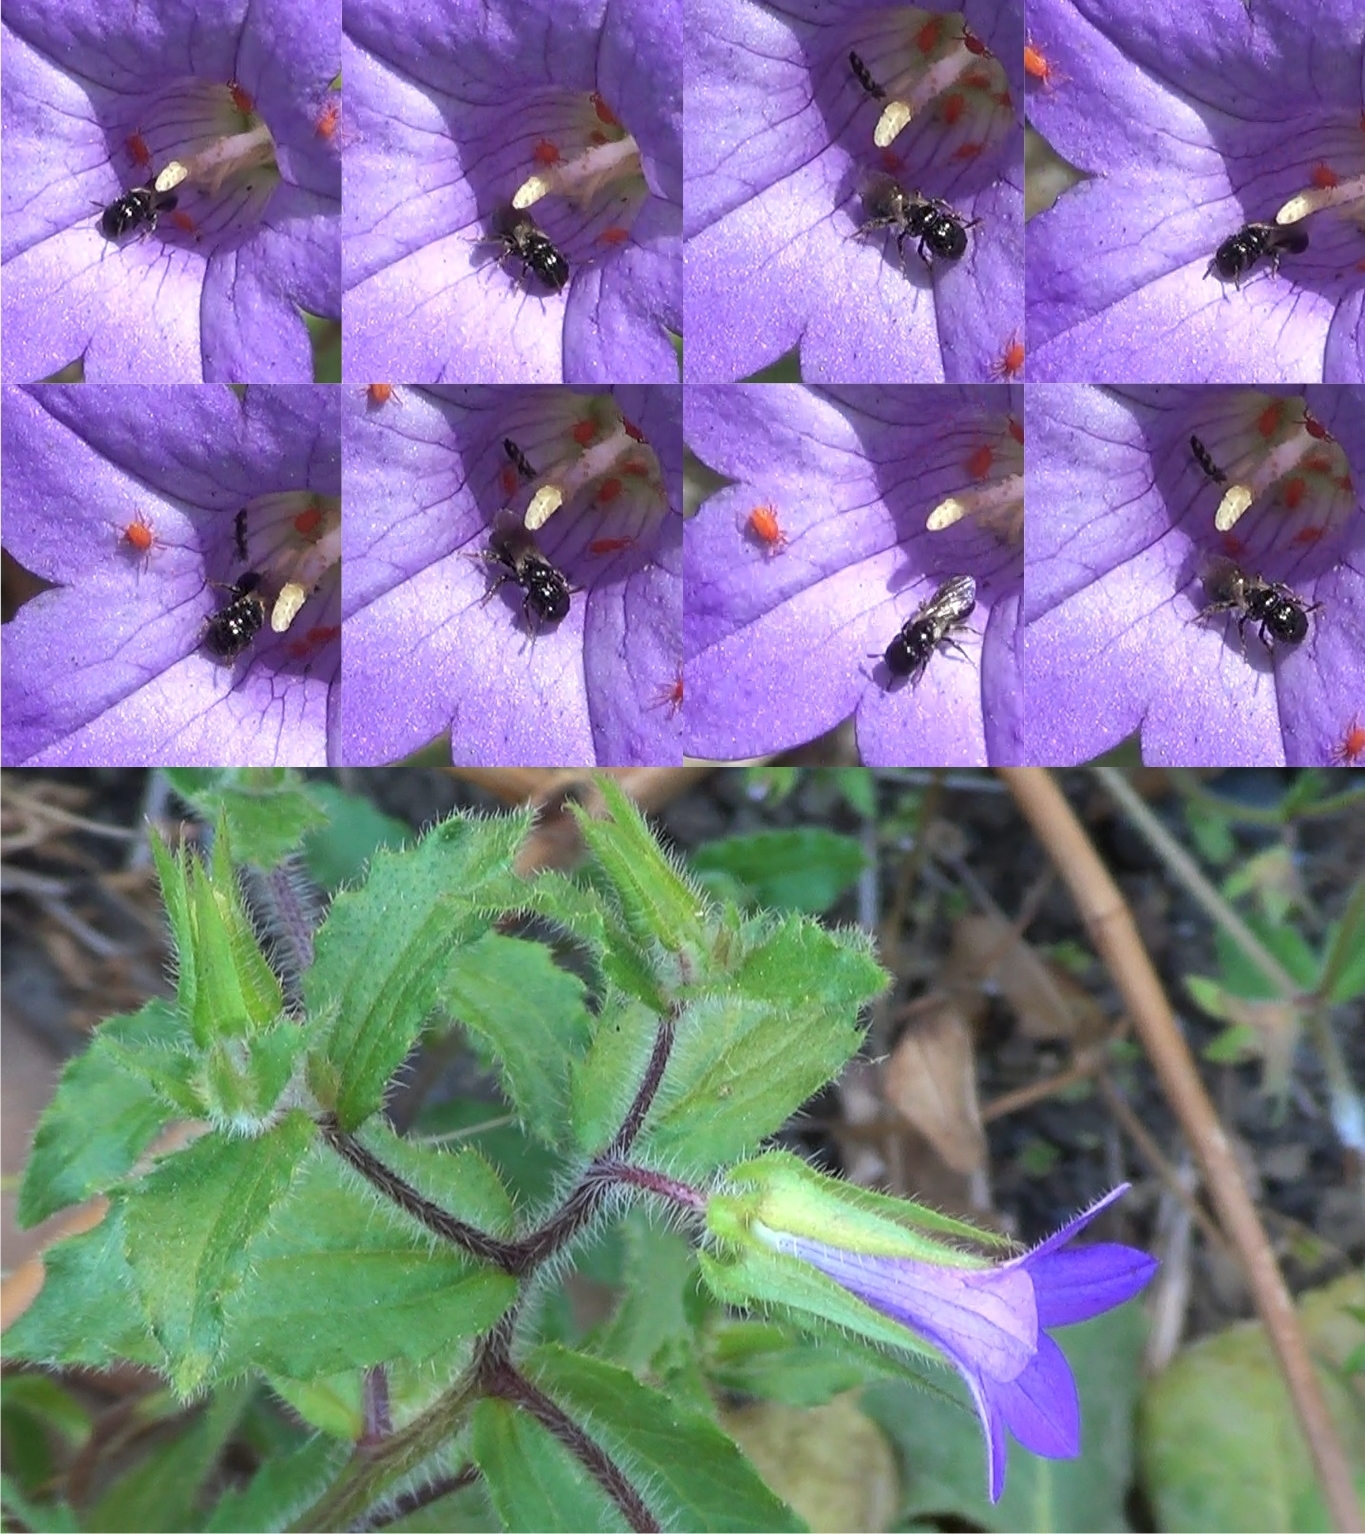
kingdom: Animalia
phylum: Arthropoda
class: Insecta
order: Hymenoptera
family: Apidae
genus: Ceratina
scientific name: Ceratina parvula
